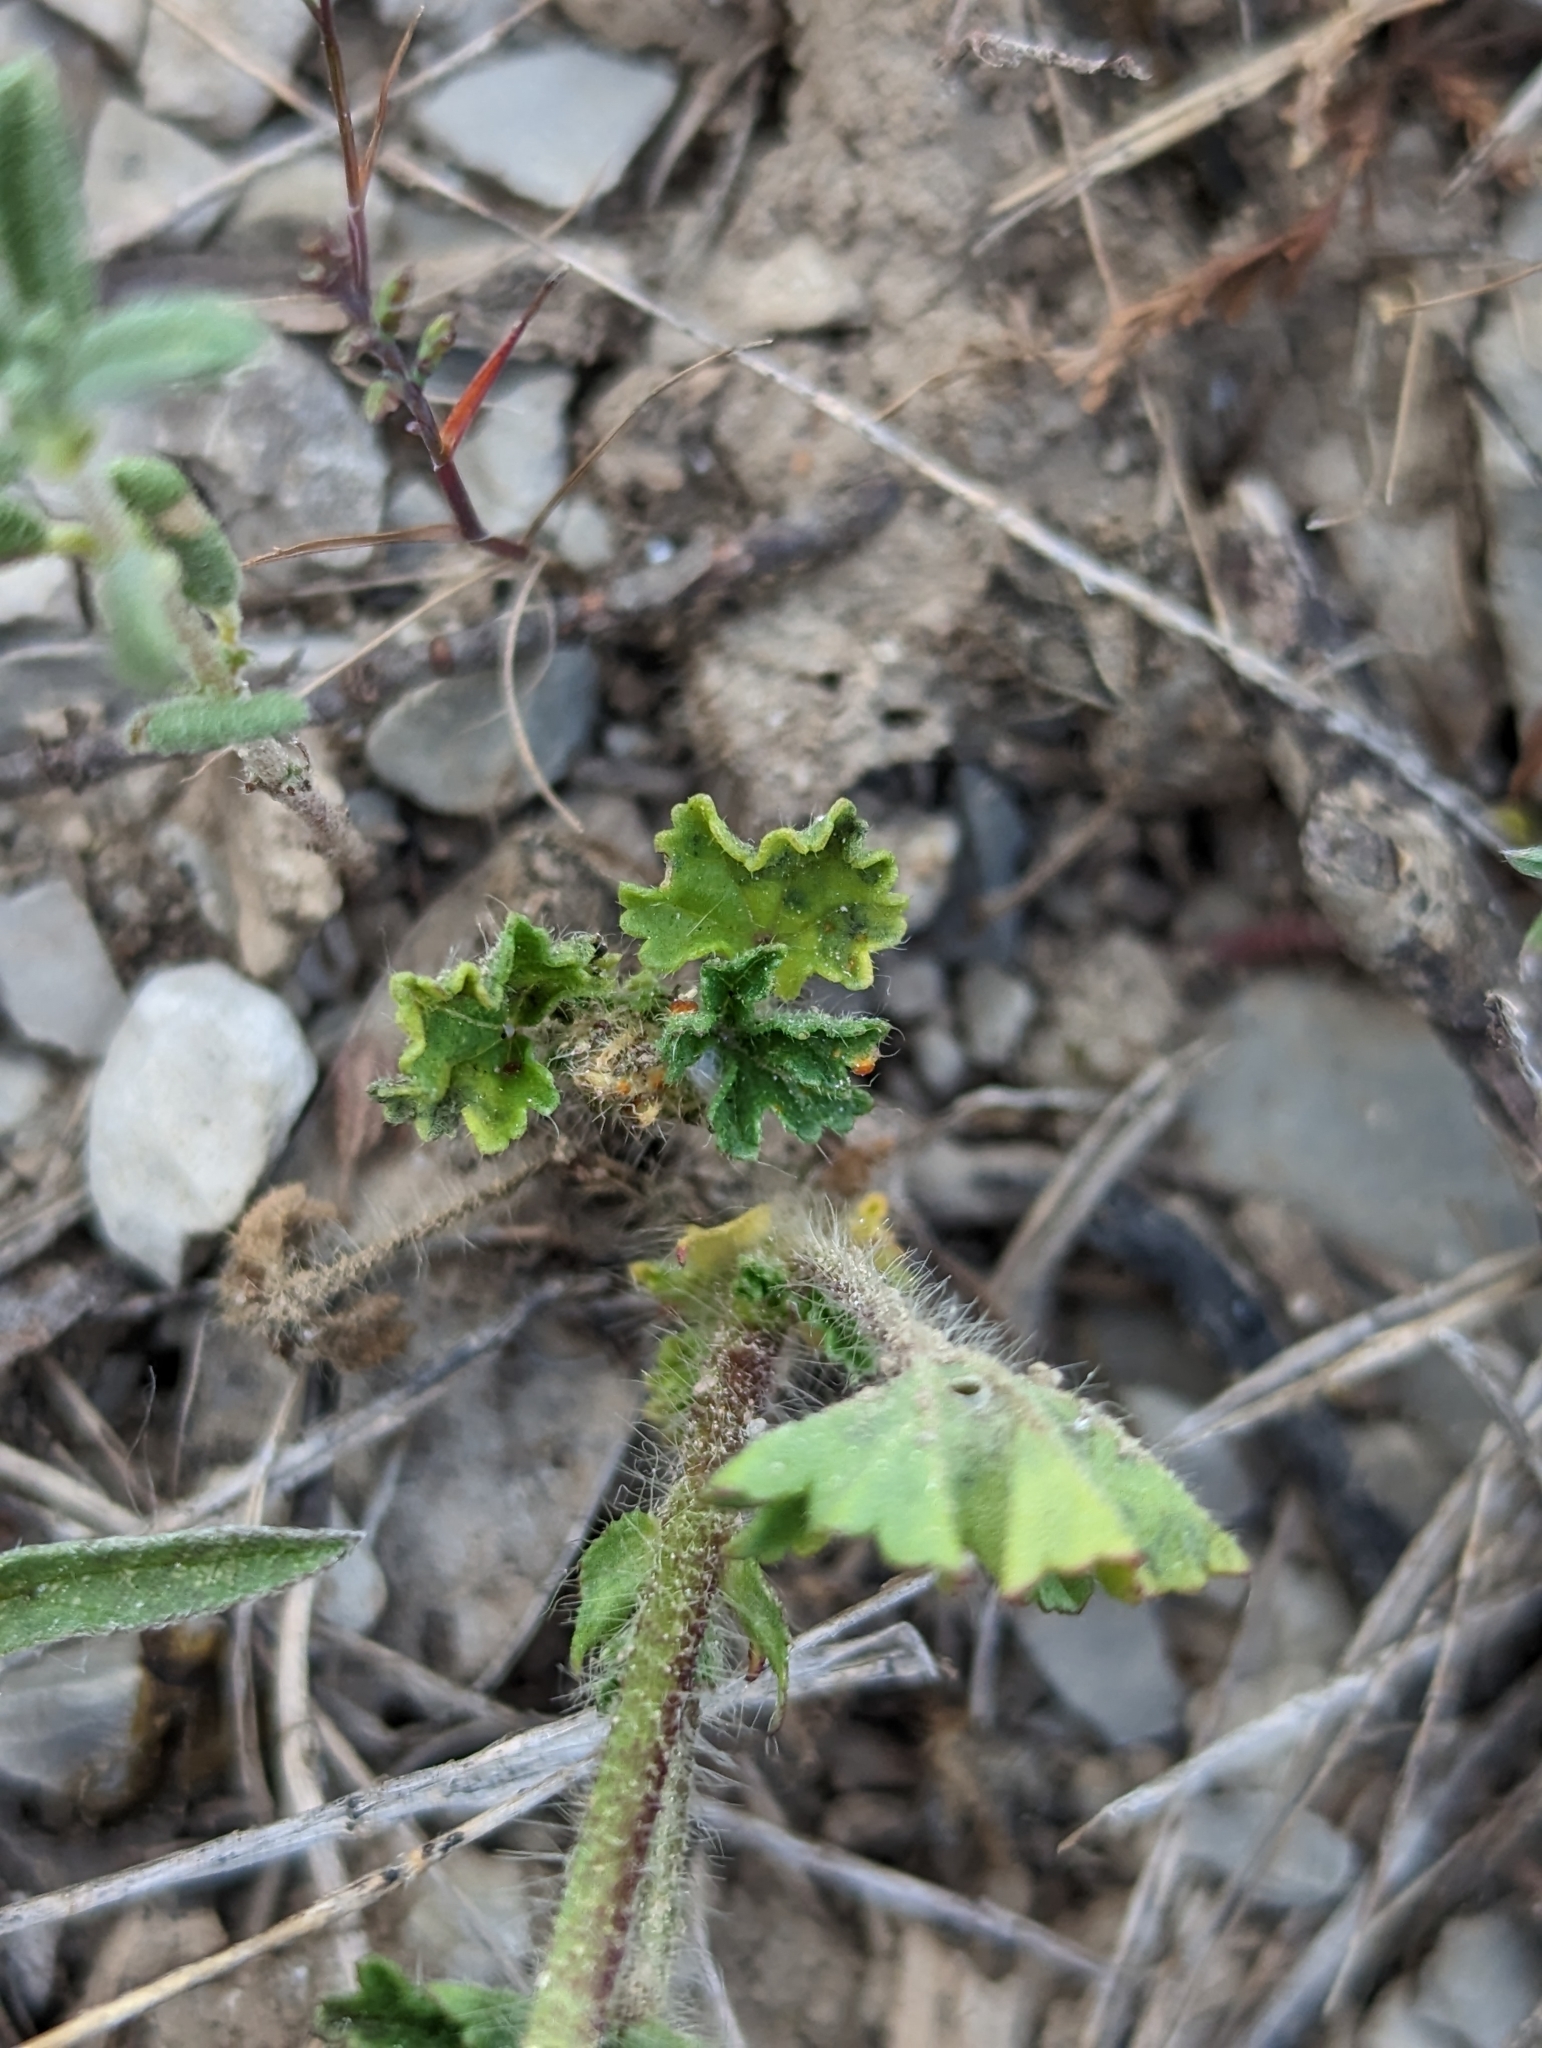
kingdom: Plantae
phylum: Tracheophyta
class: Magnoliopsida
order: Malvales
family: Malvaceae
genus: Althaea
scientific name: Althaea hirsuta
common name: Rough marsh-mallow
